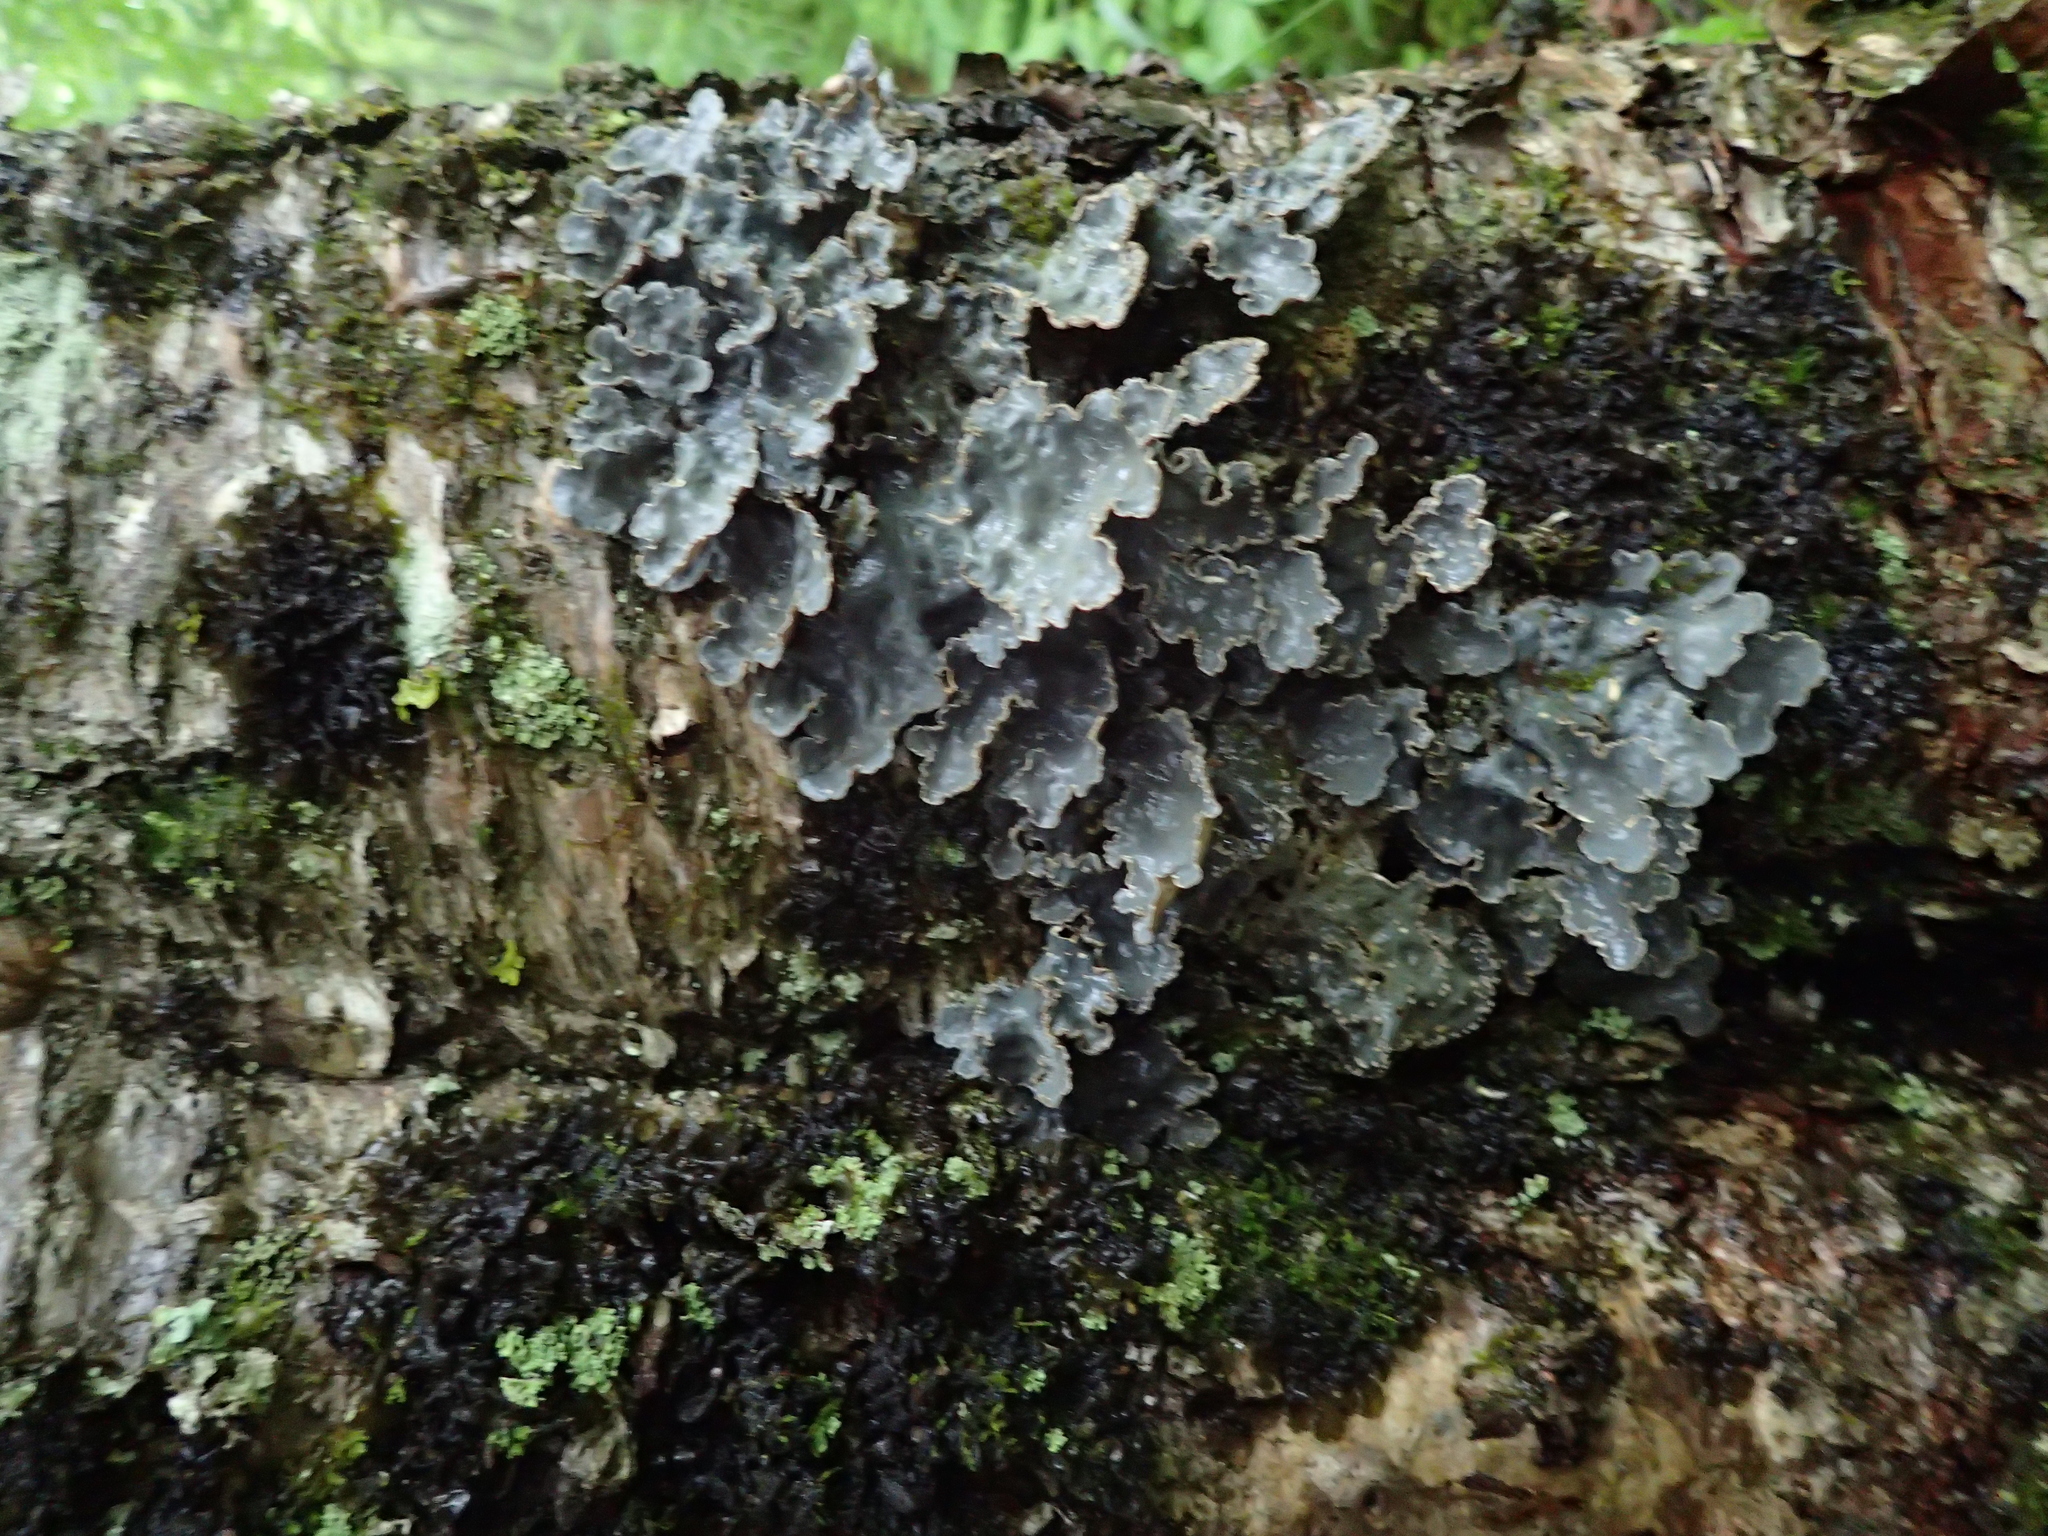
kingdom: Fungi
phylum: Ascomycota
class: Lecanoromycetes
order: Peltigerales
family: Lobariaceae
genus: Lobarina
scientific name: Lobarina scrobiculata
